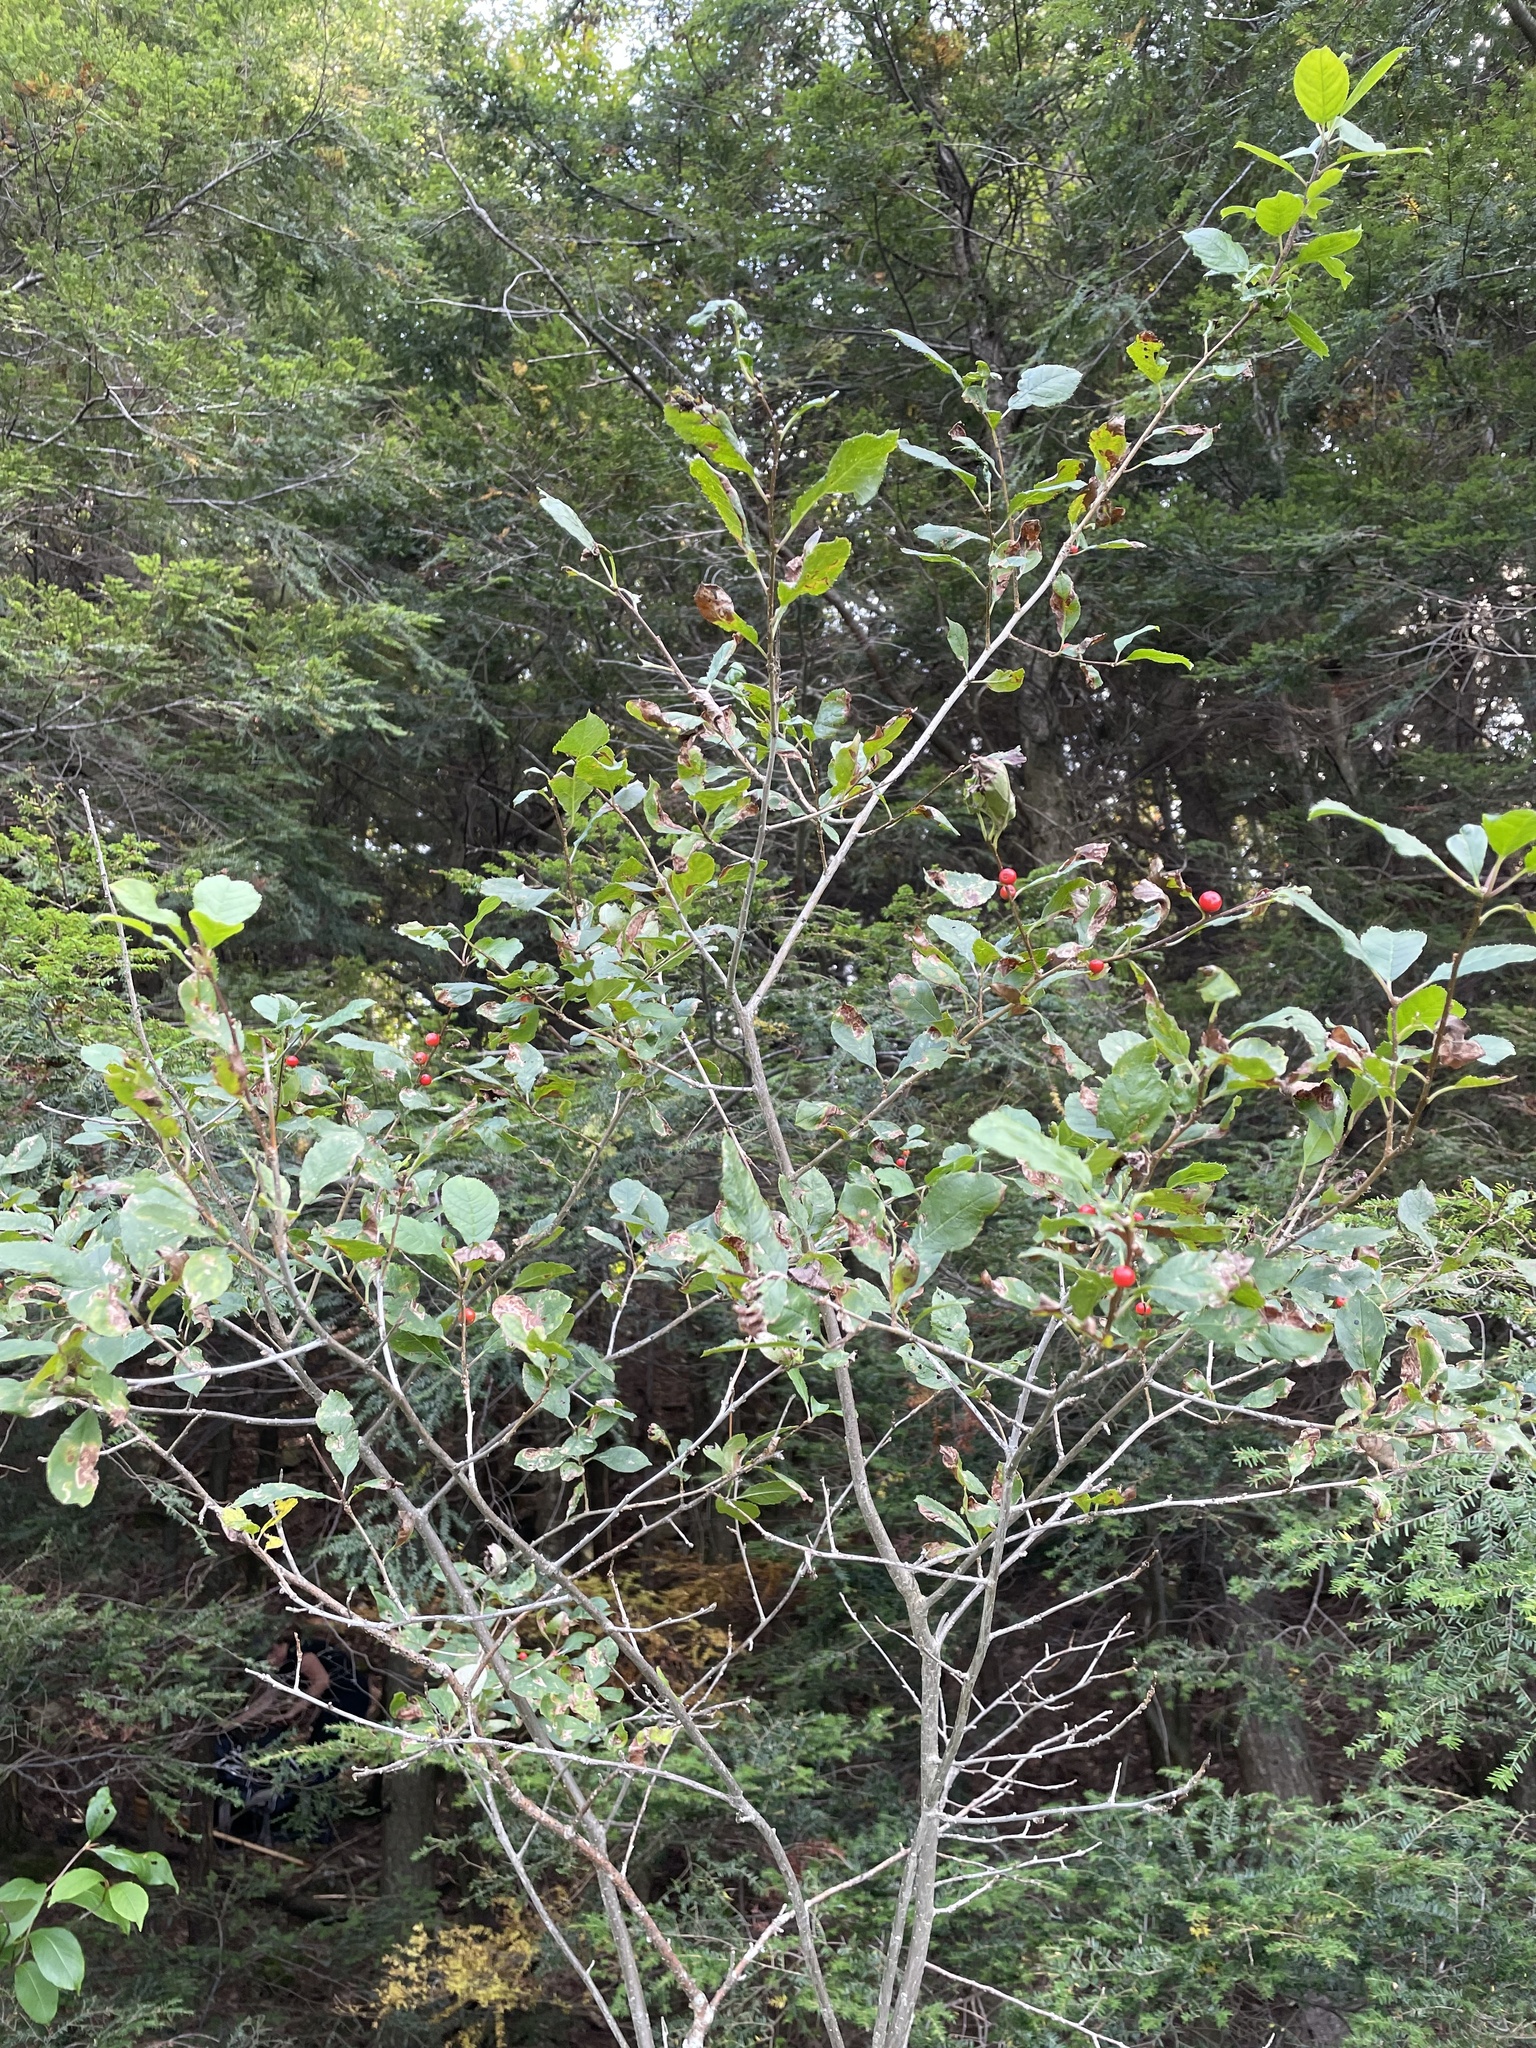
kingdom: Plantae
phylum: Tracheophyta
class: Magnoliopsida
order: Aquifoliales
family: Aquifoliaceae
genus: Ilex
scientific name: Ilex verticillata
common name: Virginia winterberry
